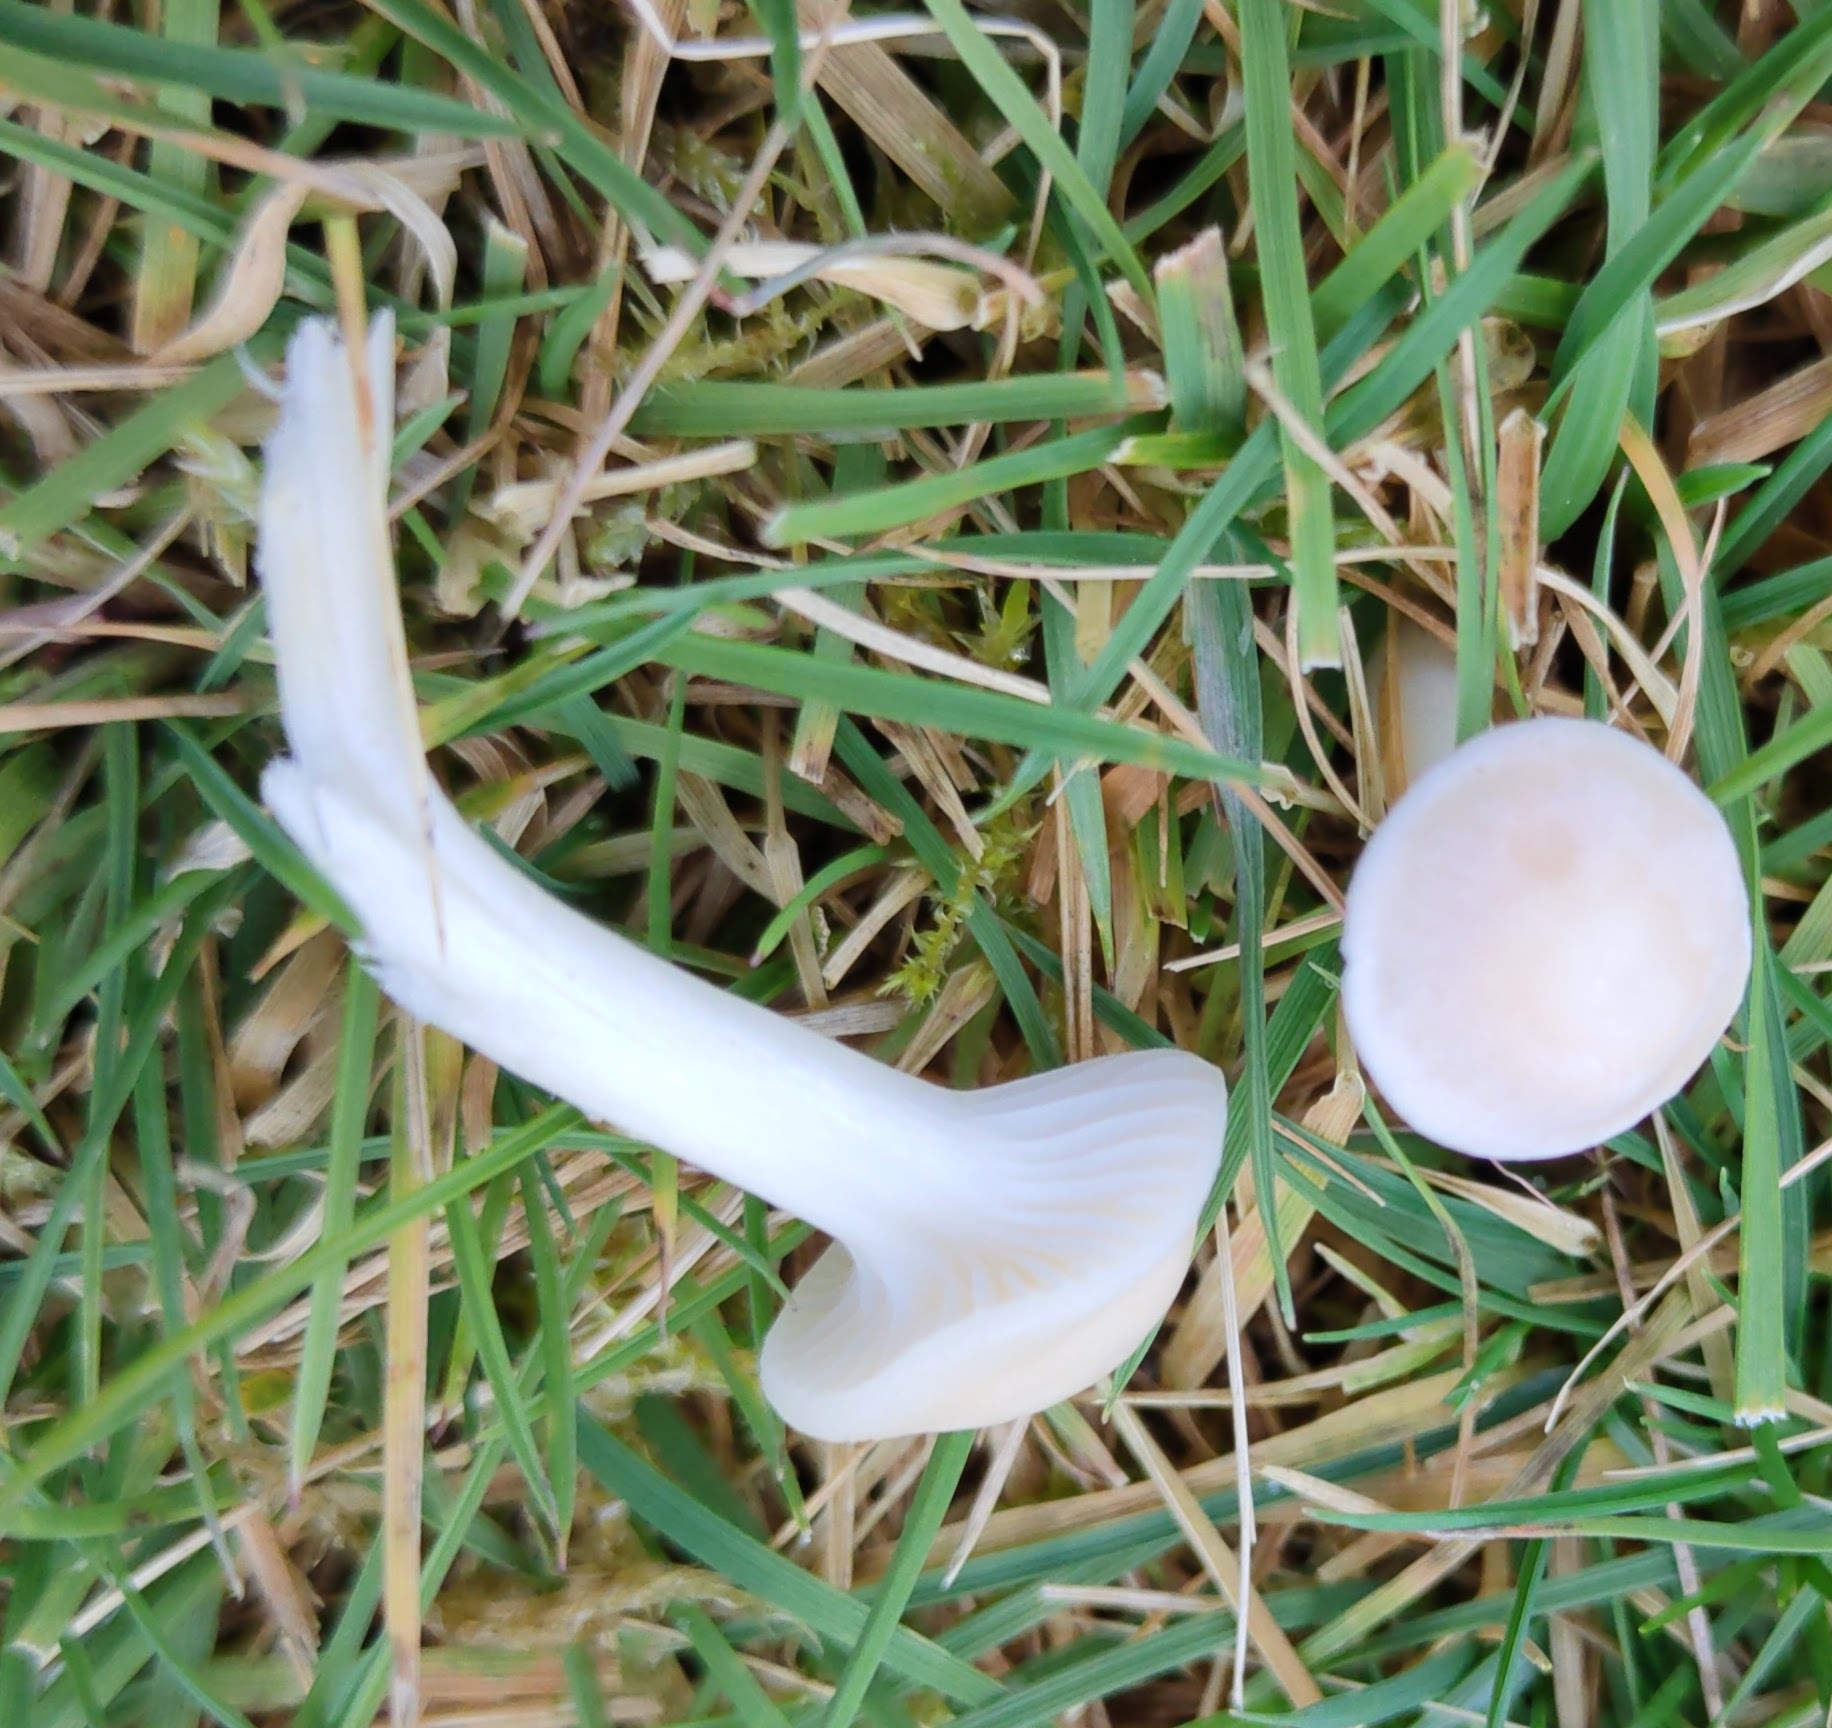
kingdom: Fungi
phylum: Basidiomycota
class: Agaricomycetes
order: Agaricales
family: Hygrophoraceae
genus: Cuphophyllus
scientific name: Cuphophyllus virgineus
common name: Snowy waxcap
